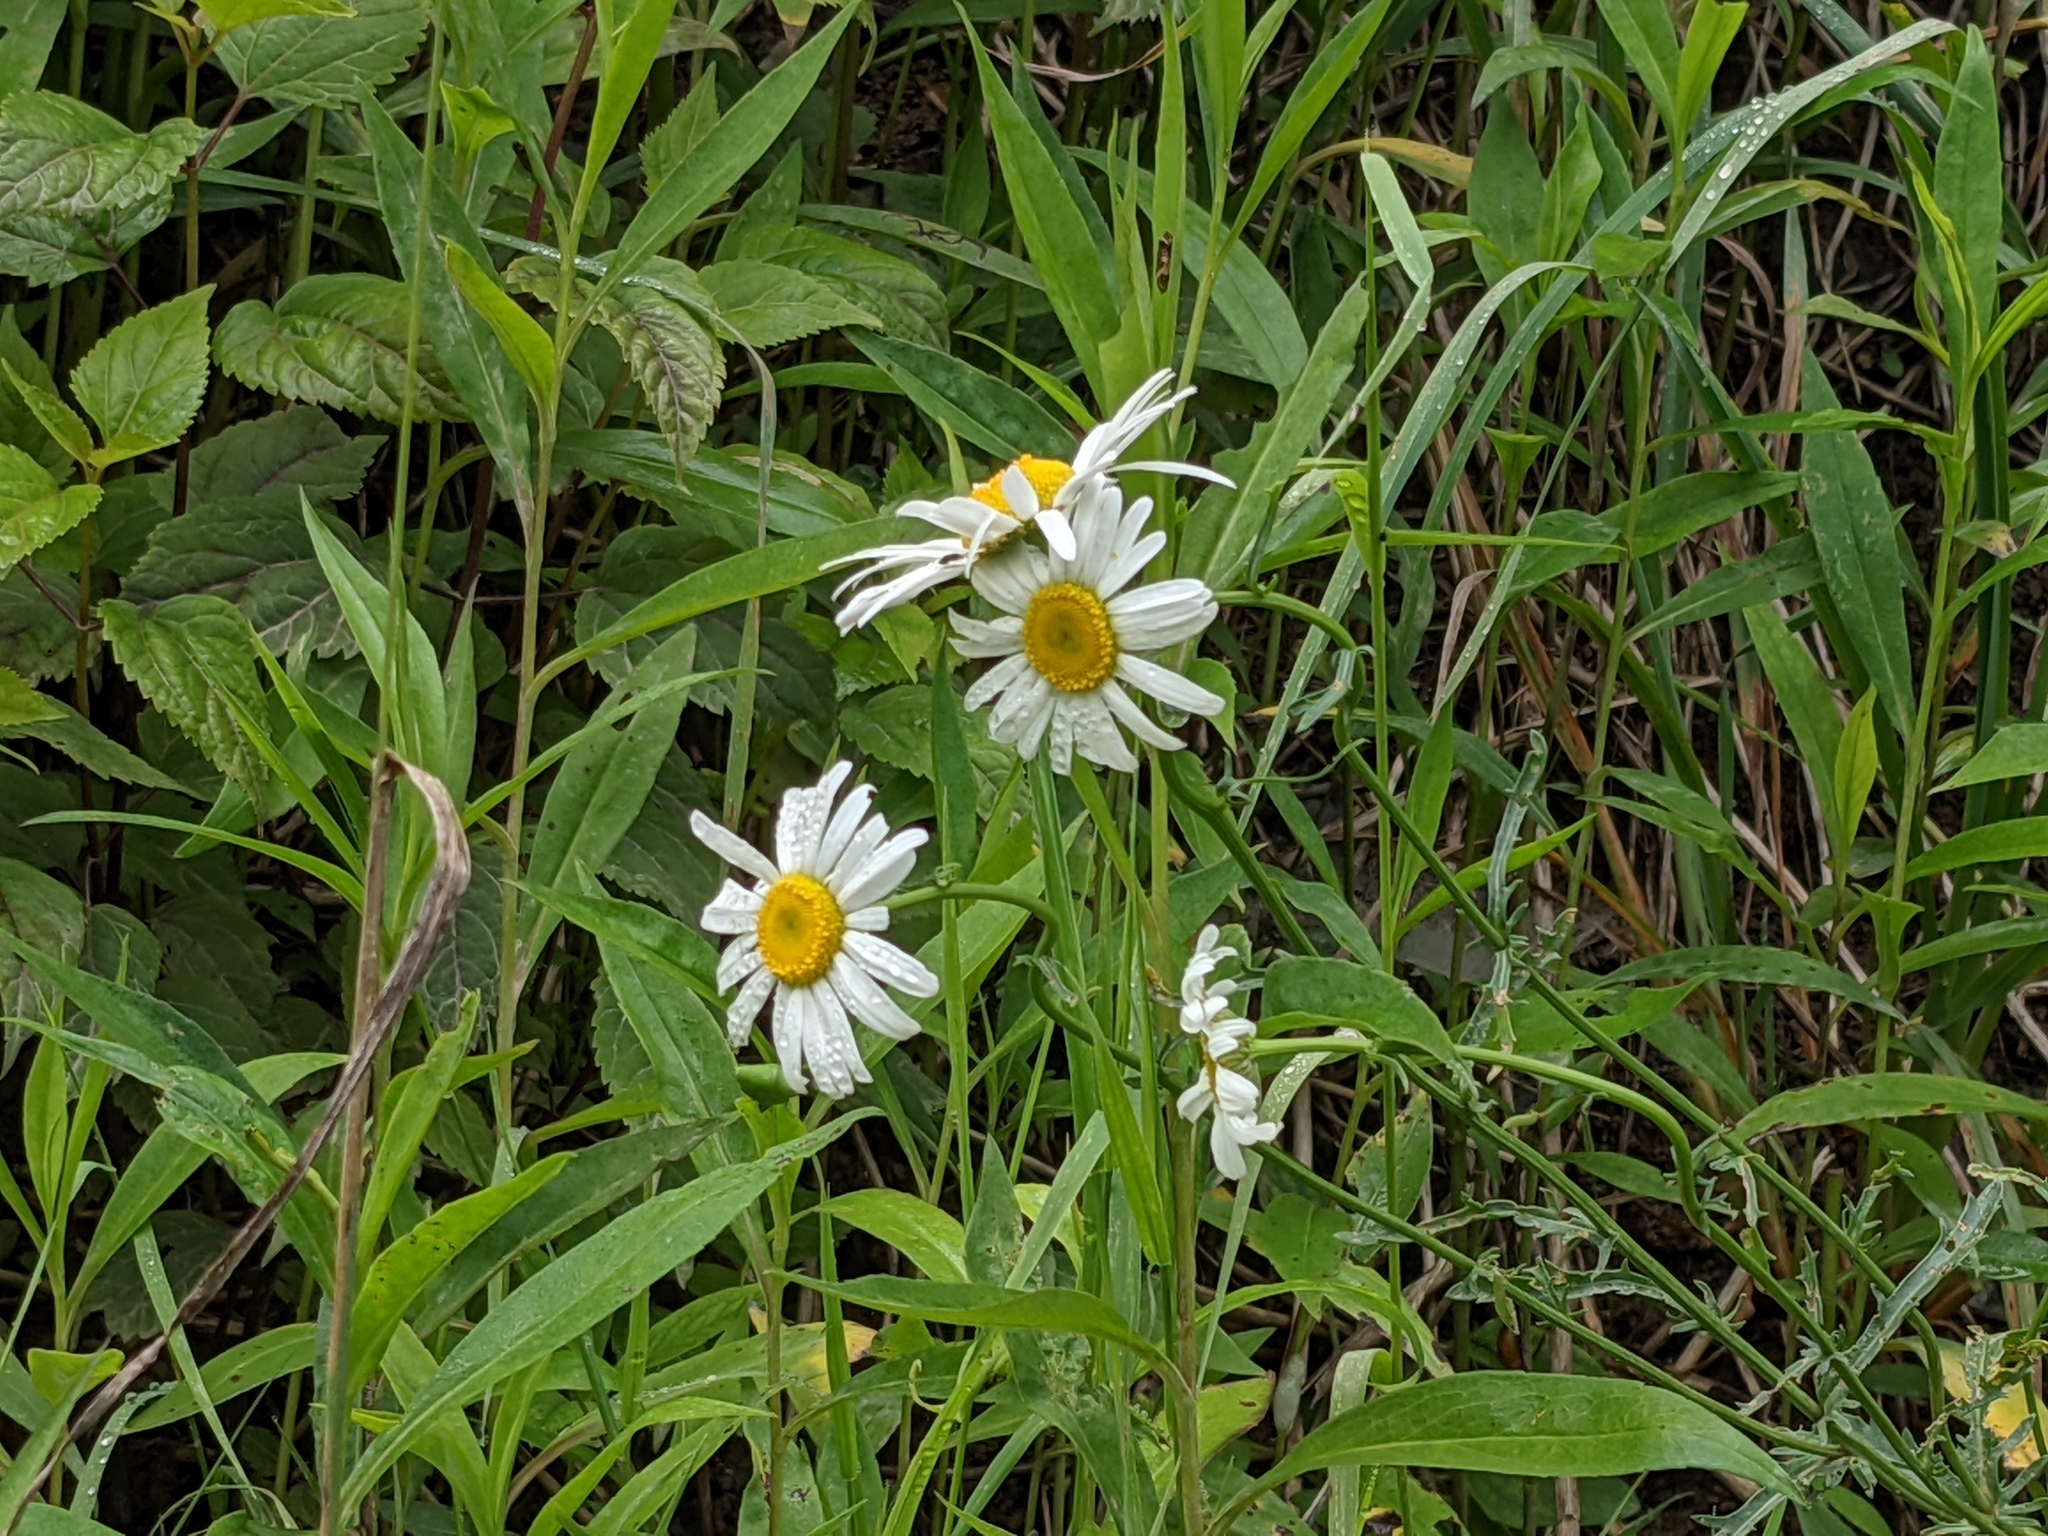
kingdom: Plantae
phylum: Tracheophyta
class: Magnoliopsida
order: Asterales
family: Asteraceae
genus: Leucanthemum
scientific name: Leucanthemum vulgare
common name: Oxeye daisy
